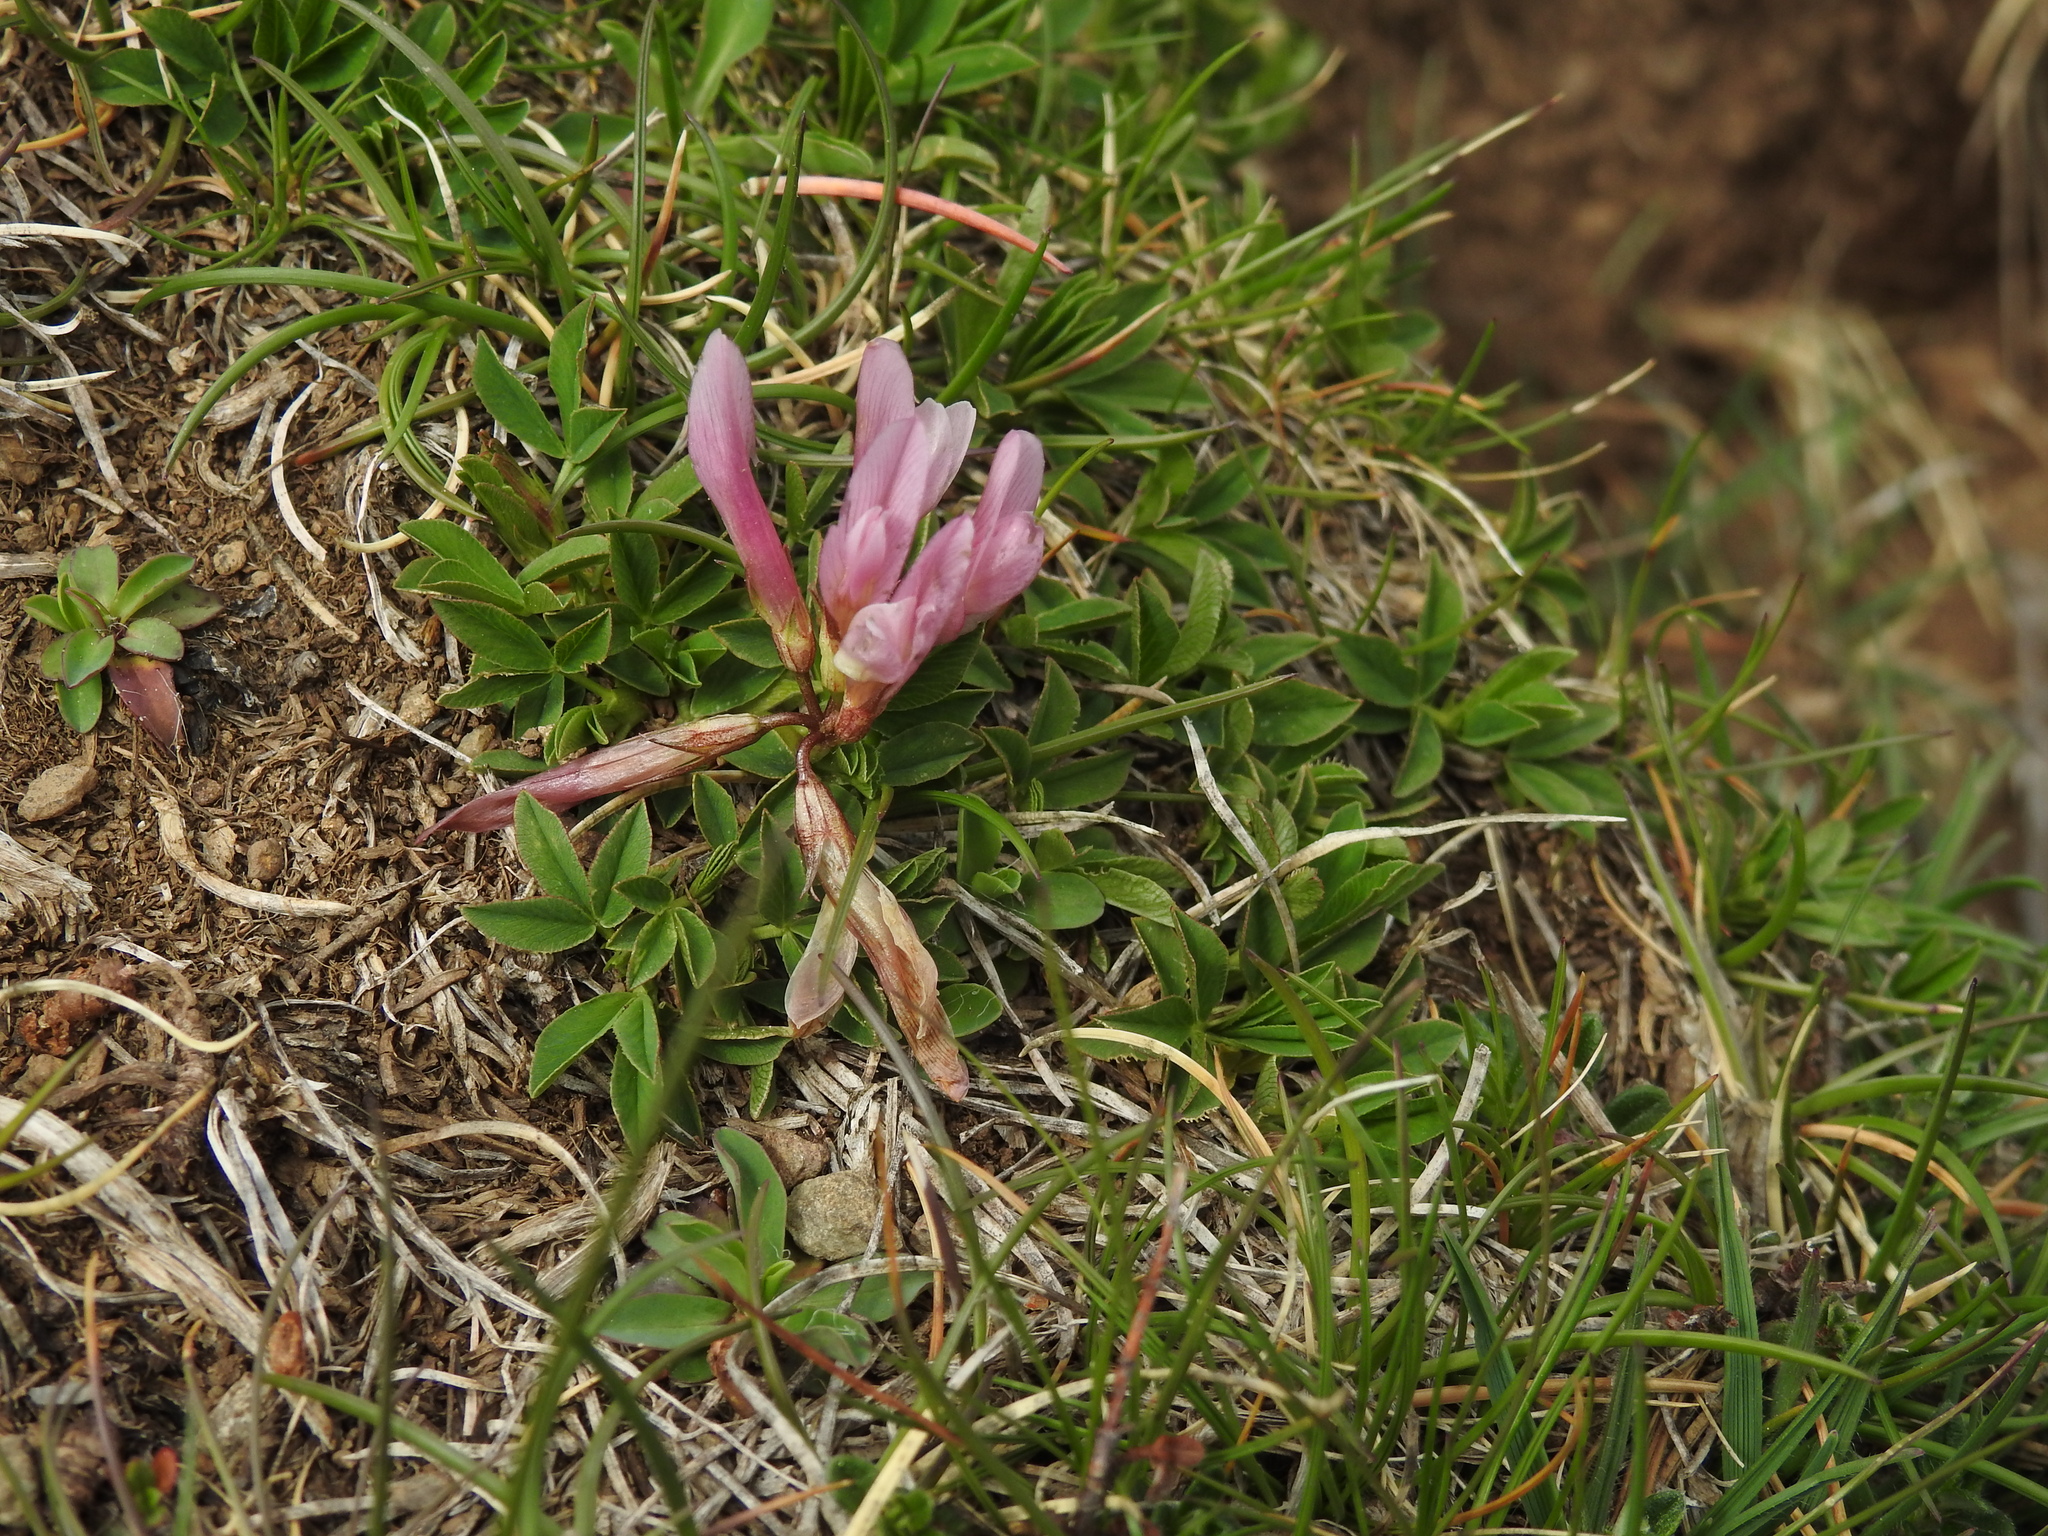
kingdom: Plantae
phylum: Tracheophyta
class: Magnoliopsida
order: Fabales
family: Fabaceae
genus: Trifolium
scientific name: Trifolium alpinum
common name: Alpine clover
